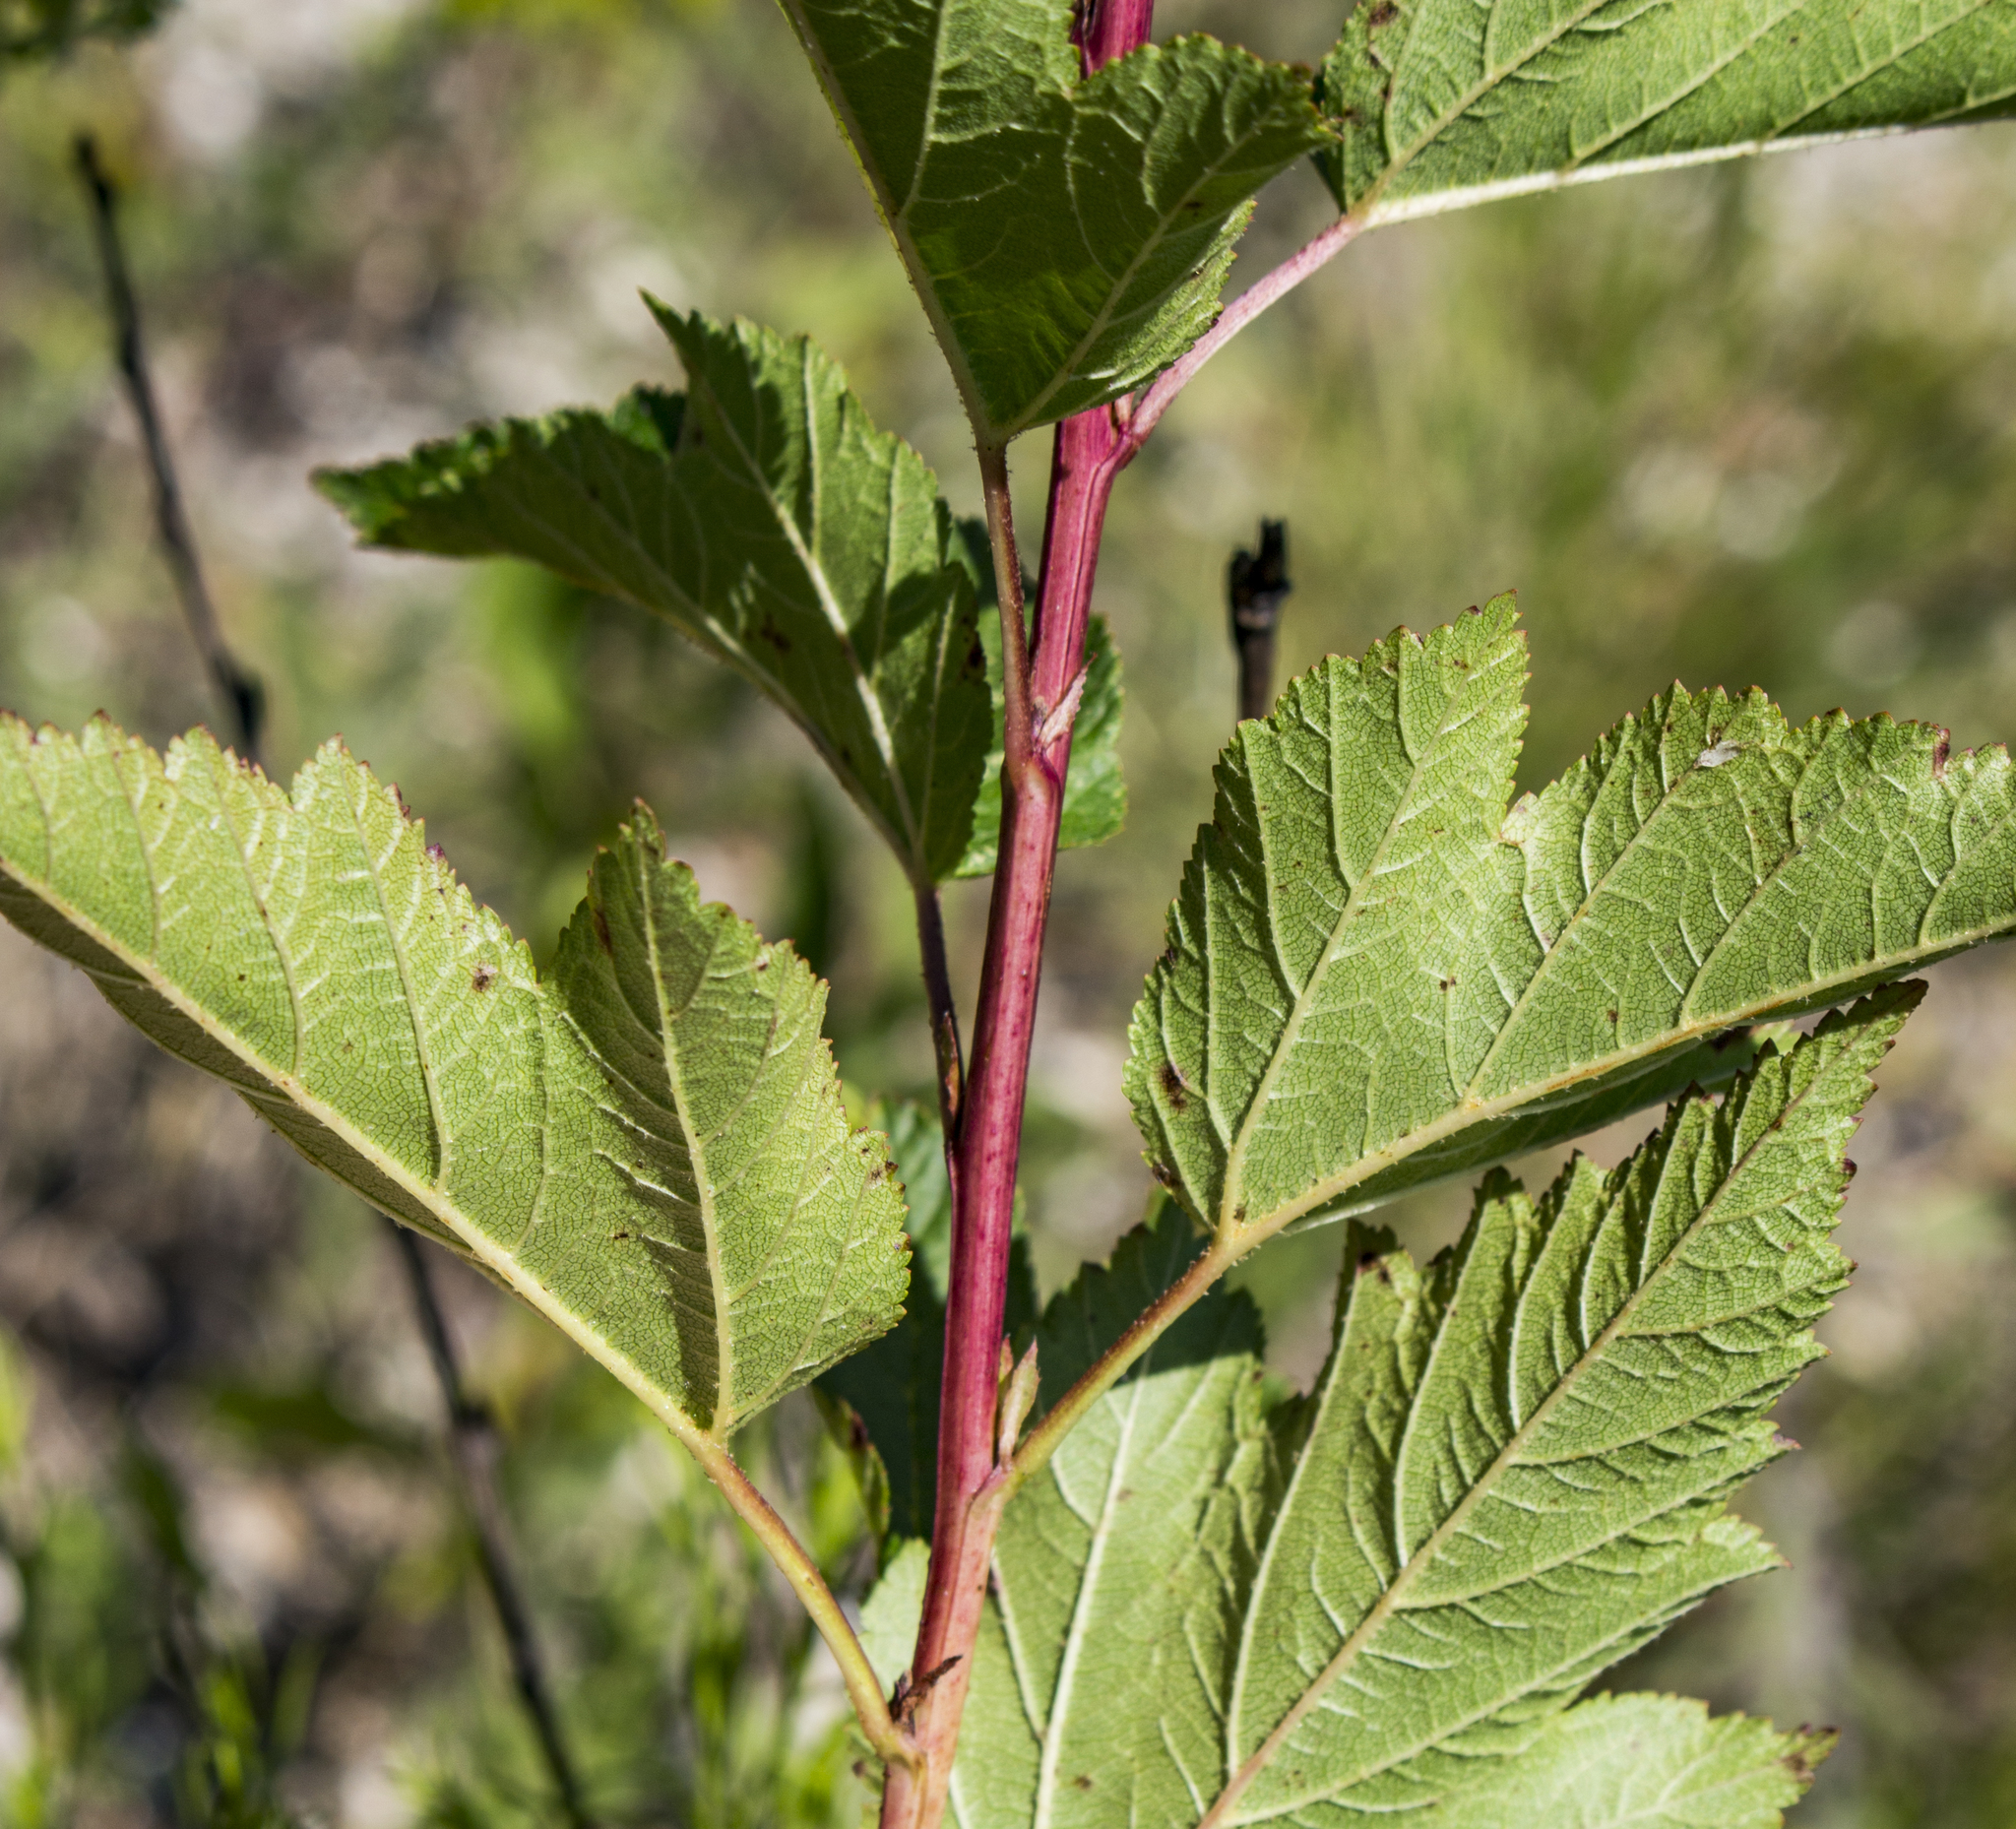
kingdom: Plantae
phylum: Tracheophyta
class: Magnoliopsida
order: Rosales
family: Rosaceae
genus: Physocarpus
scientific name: Physocarpus opulifolius
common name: Ninebark
